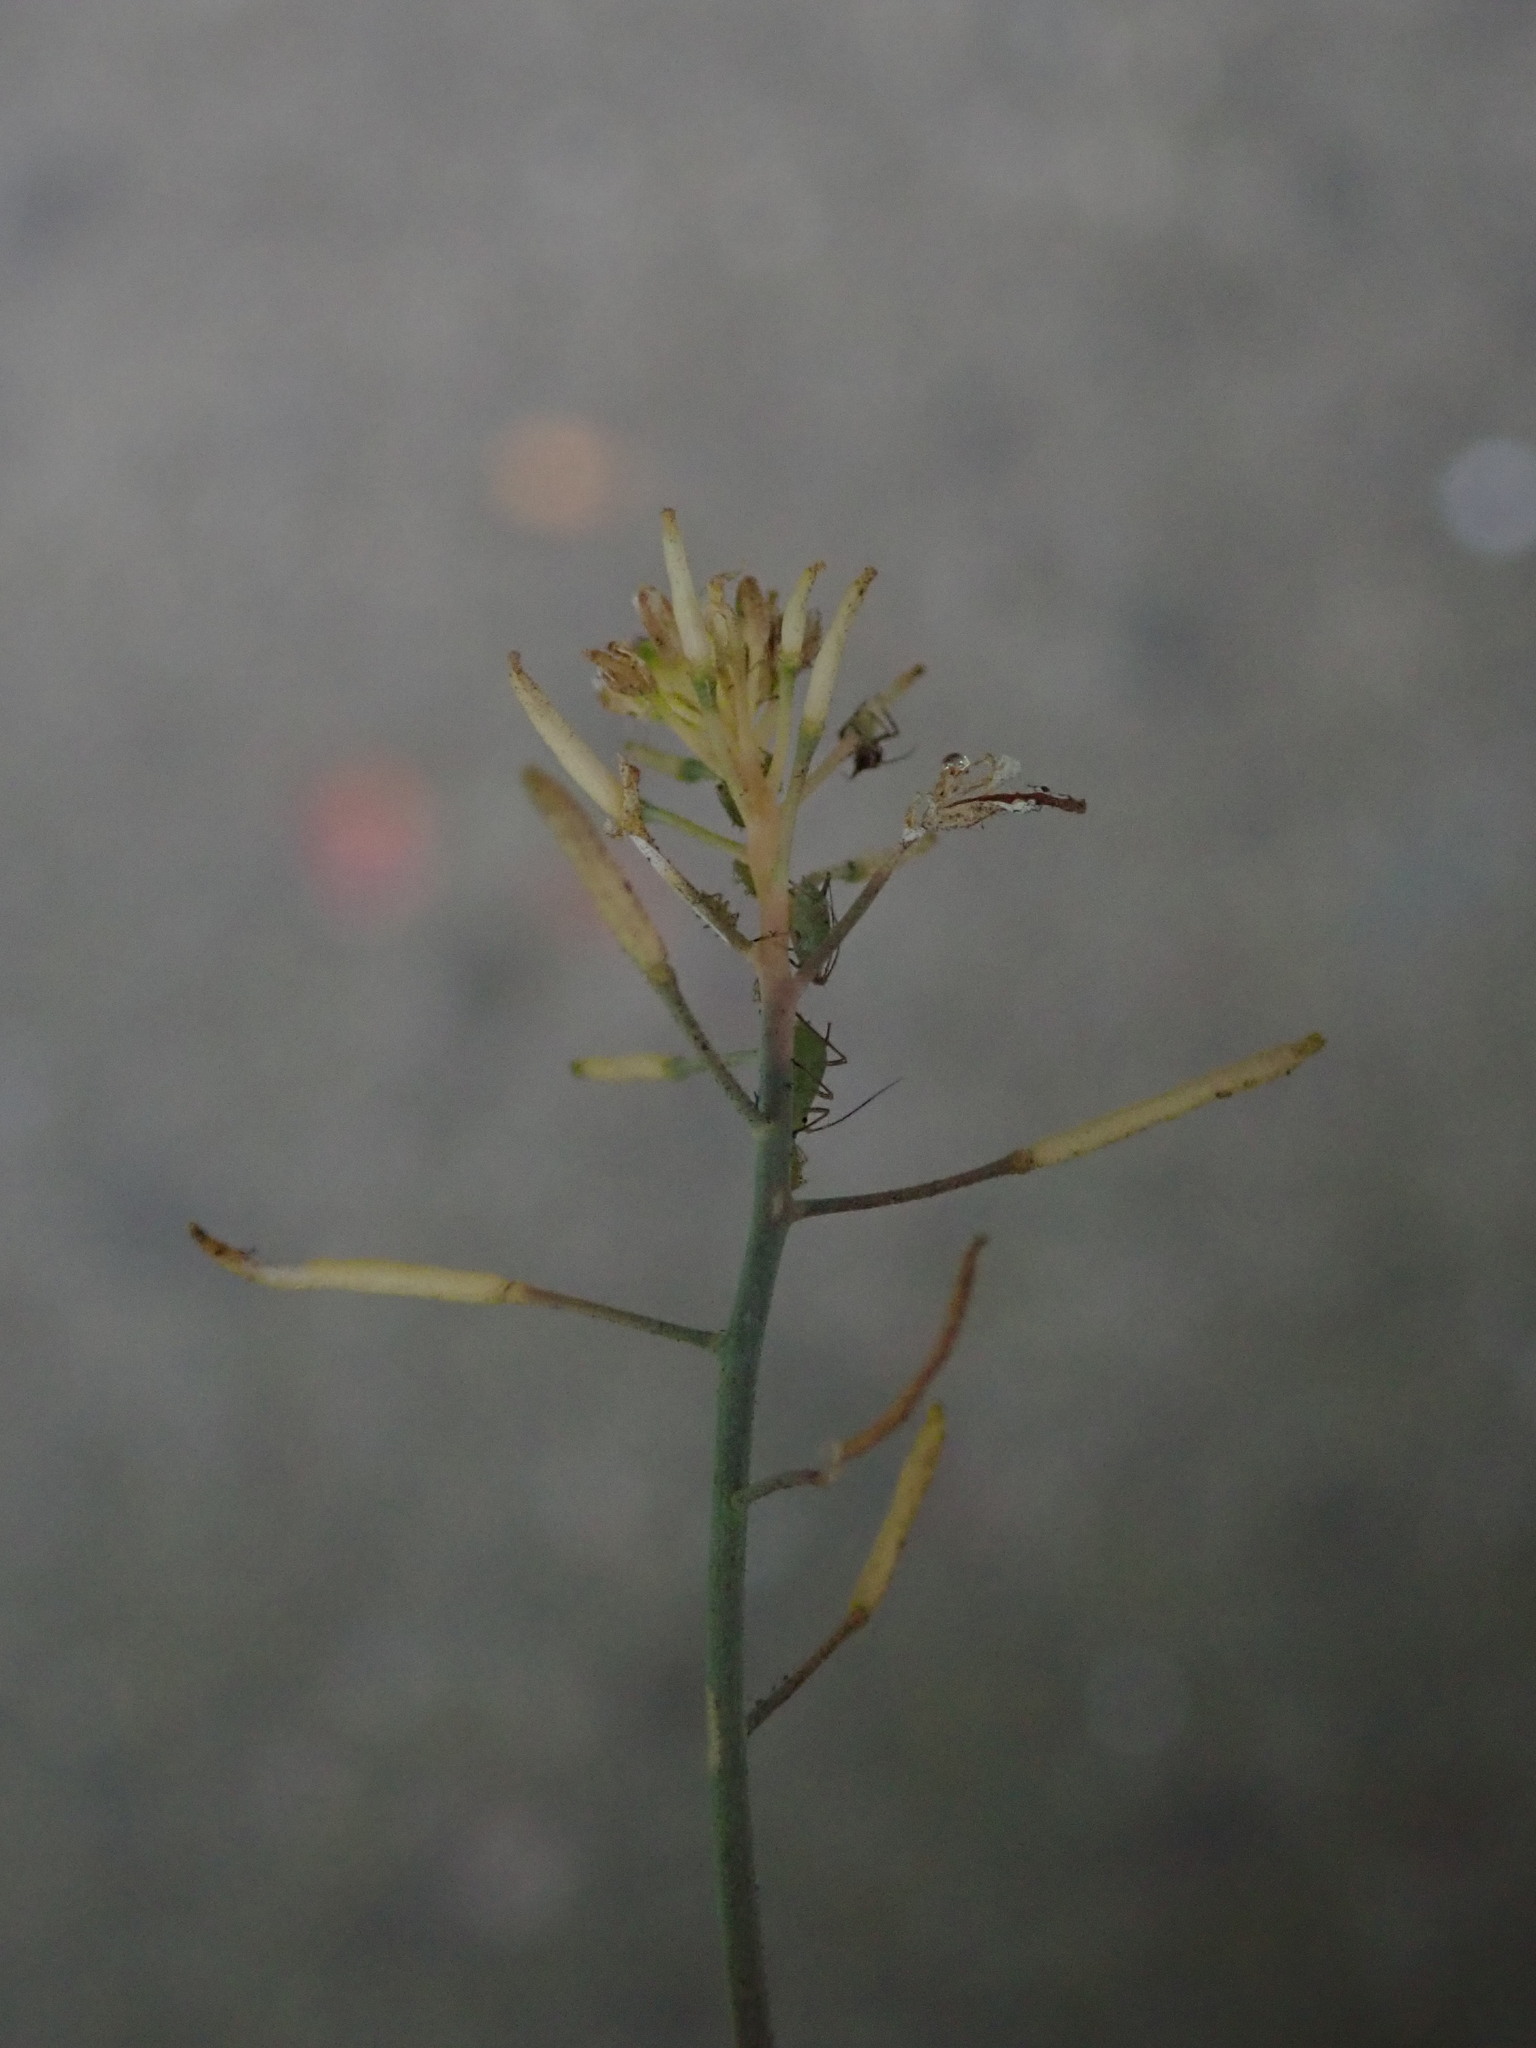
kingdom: Plantae
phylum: Tracheophyta
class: Magnoliopsida
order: Brassicales
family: Brassicaceae
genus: Arabidopsis
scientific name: Arabidopsis thaliana
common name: Thale cress
